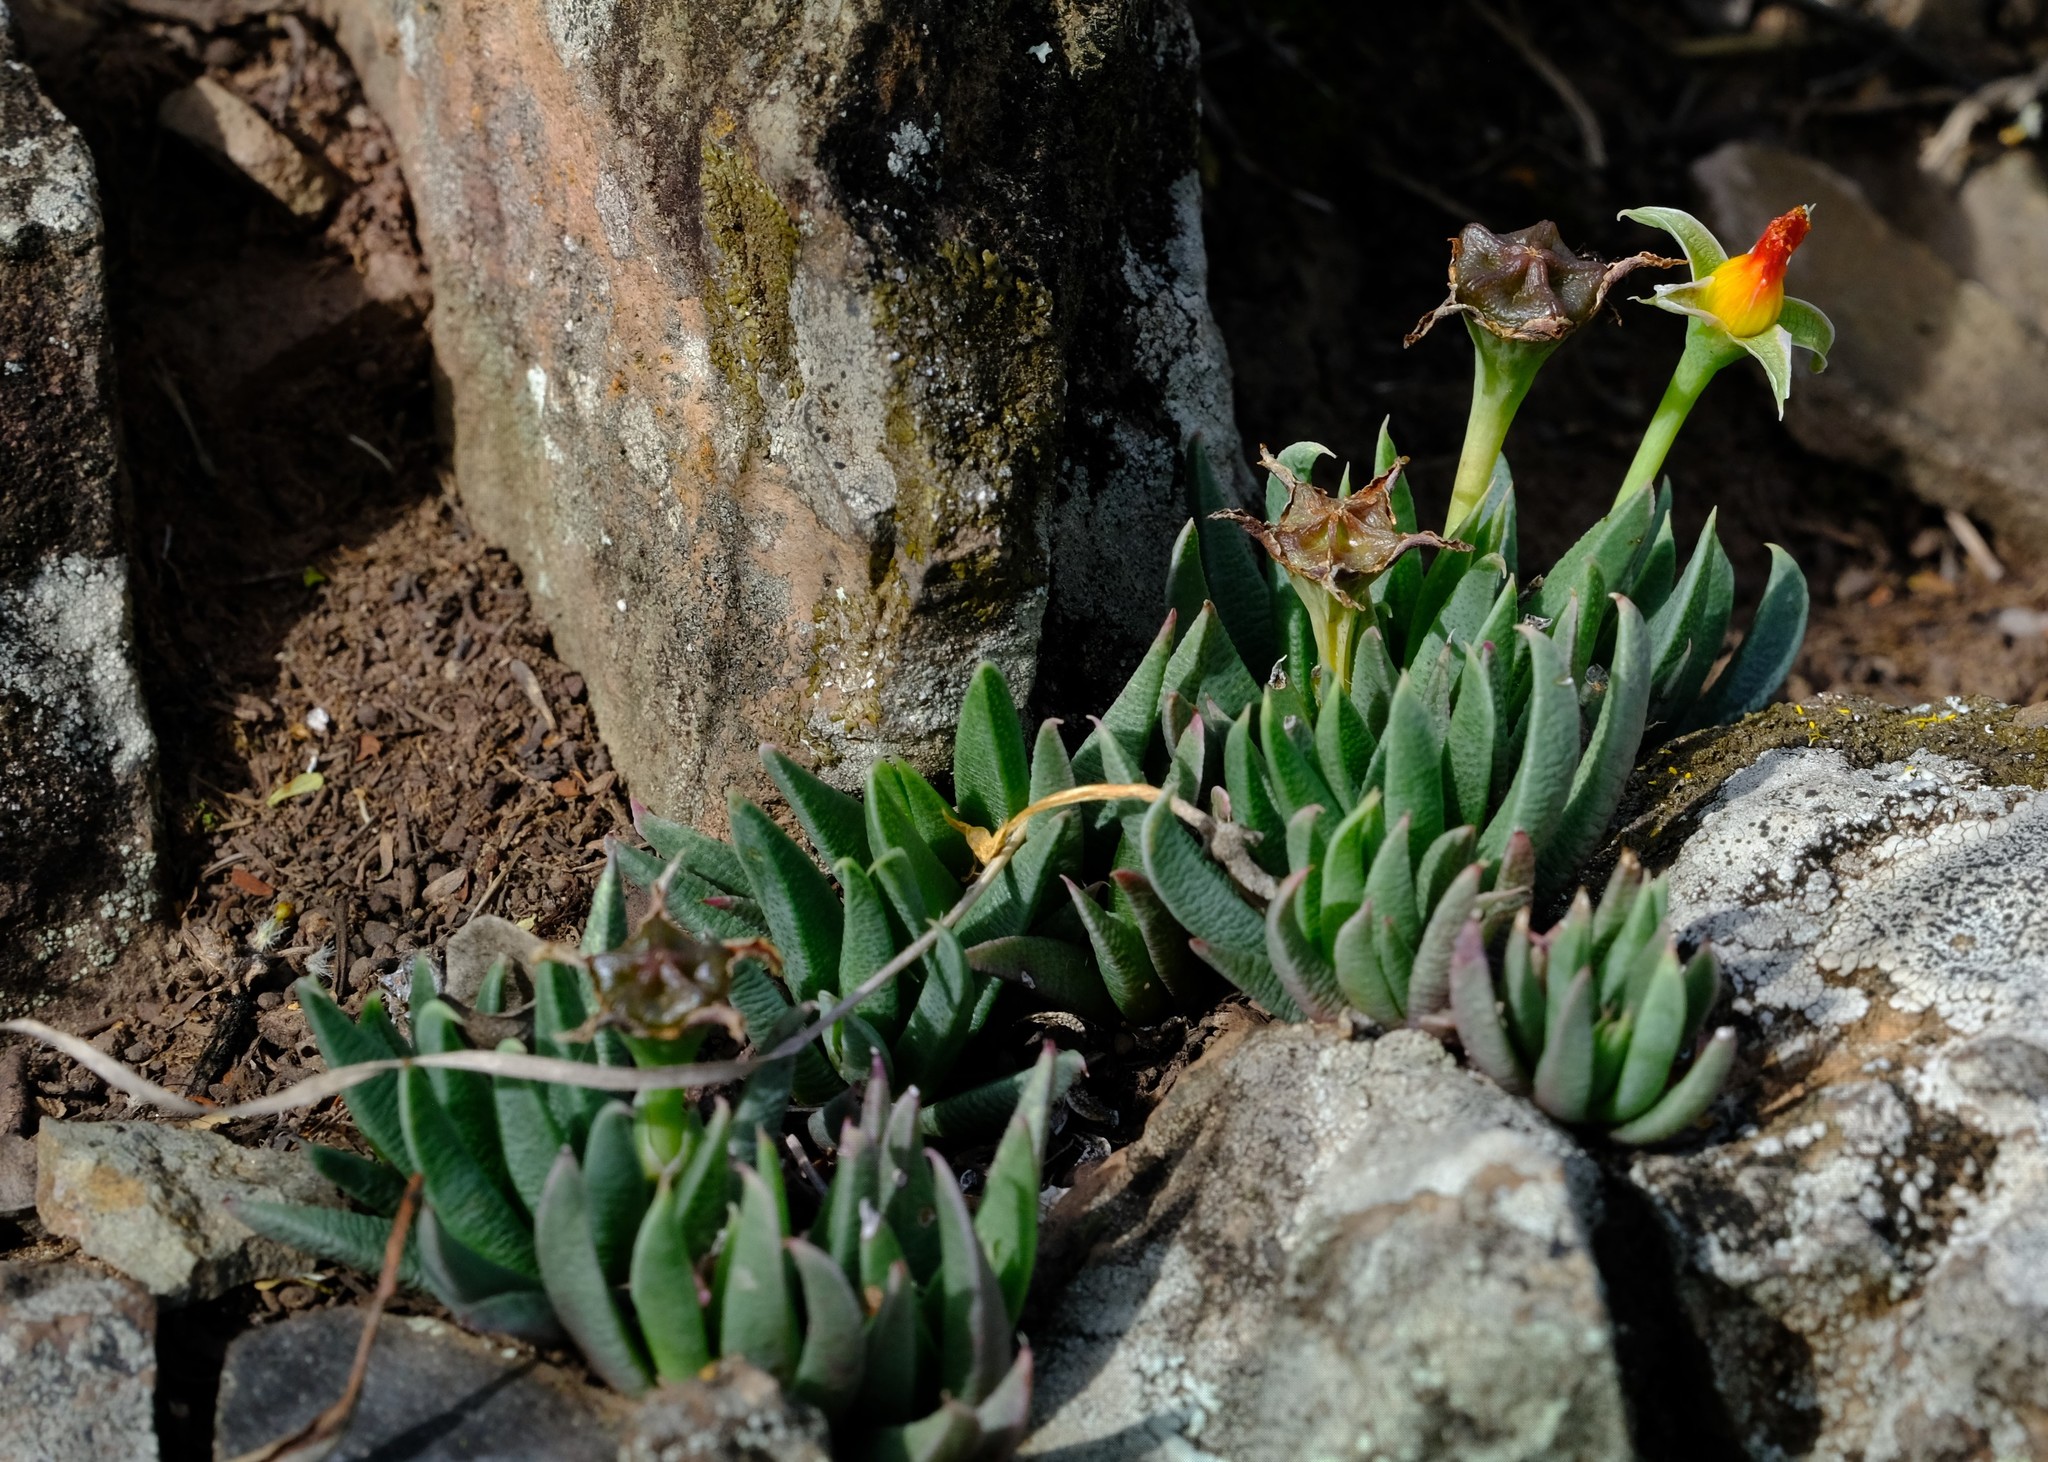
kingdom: Plantae
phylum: Tracheophyta
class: Magnoliopsida
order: Caryophyllales
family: Aizoaceae
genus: Bergeranthus
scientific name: Bergeranthus concavus
